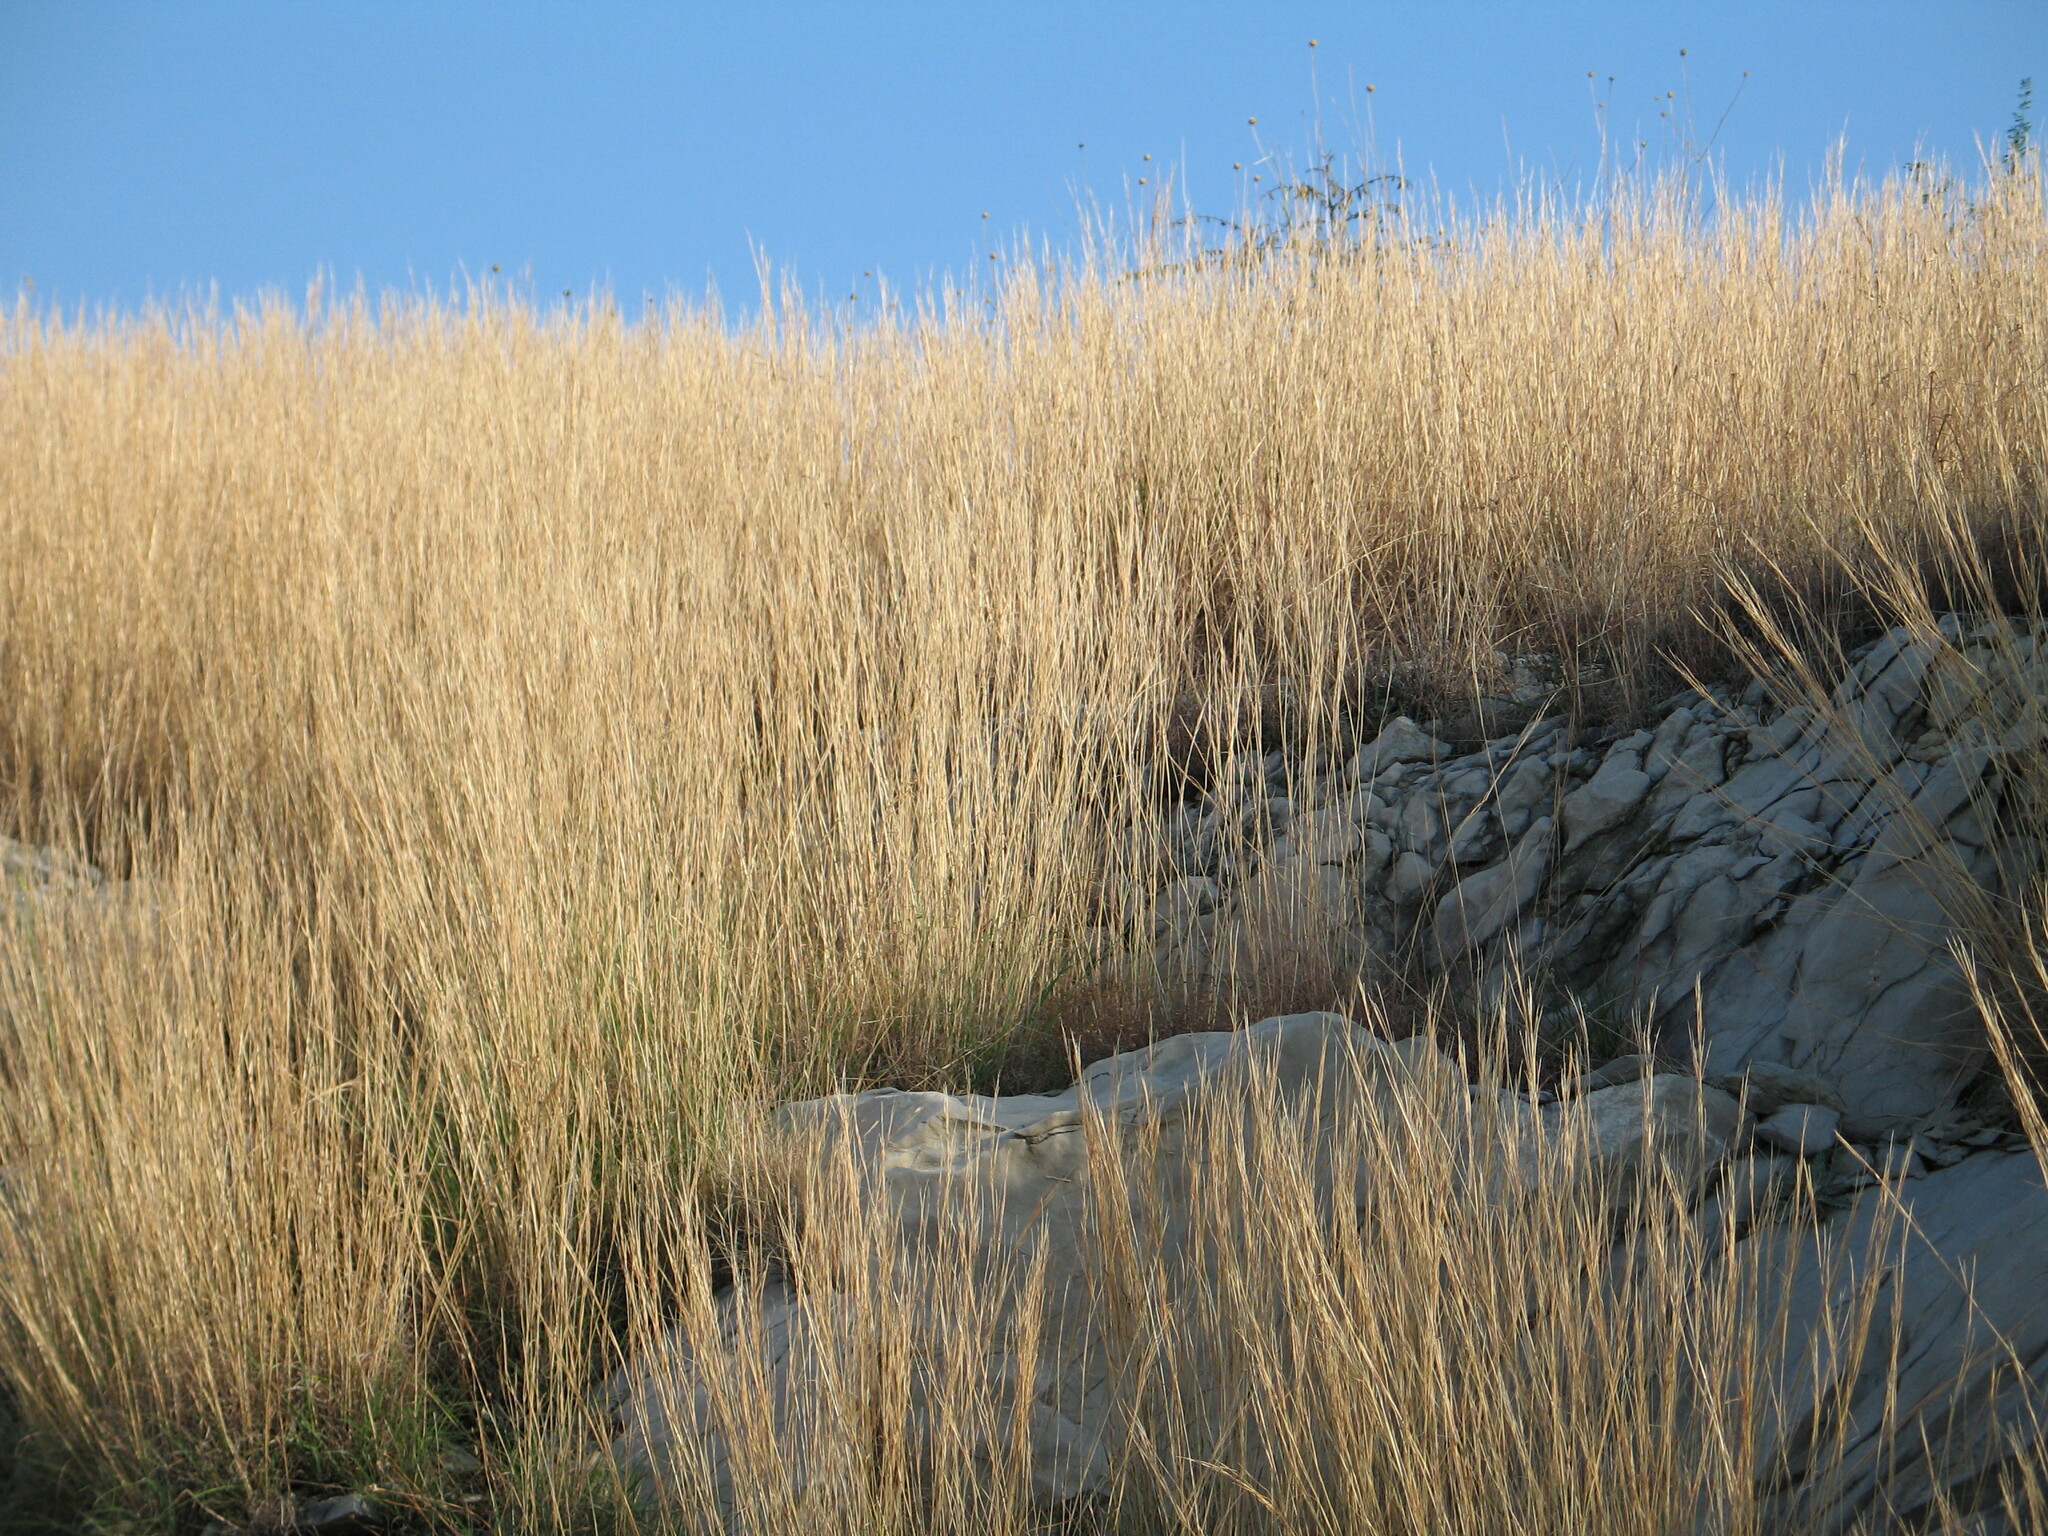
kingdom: Plantae
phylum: Tracheophyta
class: Liliopsida
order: Poales
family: Poaceae
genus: Hyparrhenia
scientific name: Hyparrhenia hirta
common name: Thatching grass
